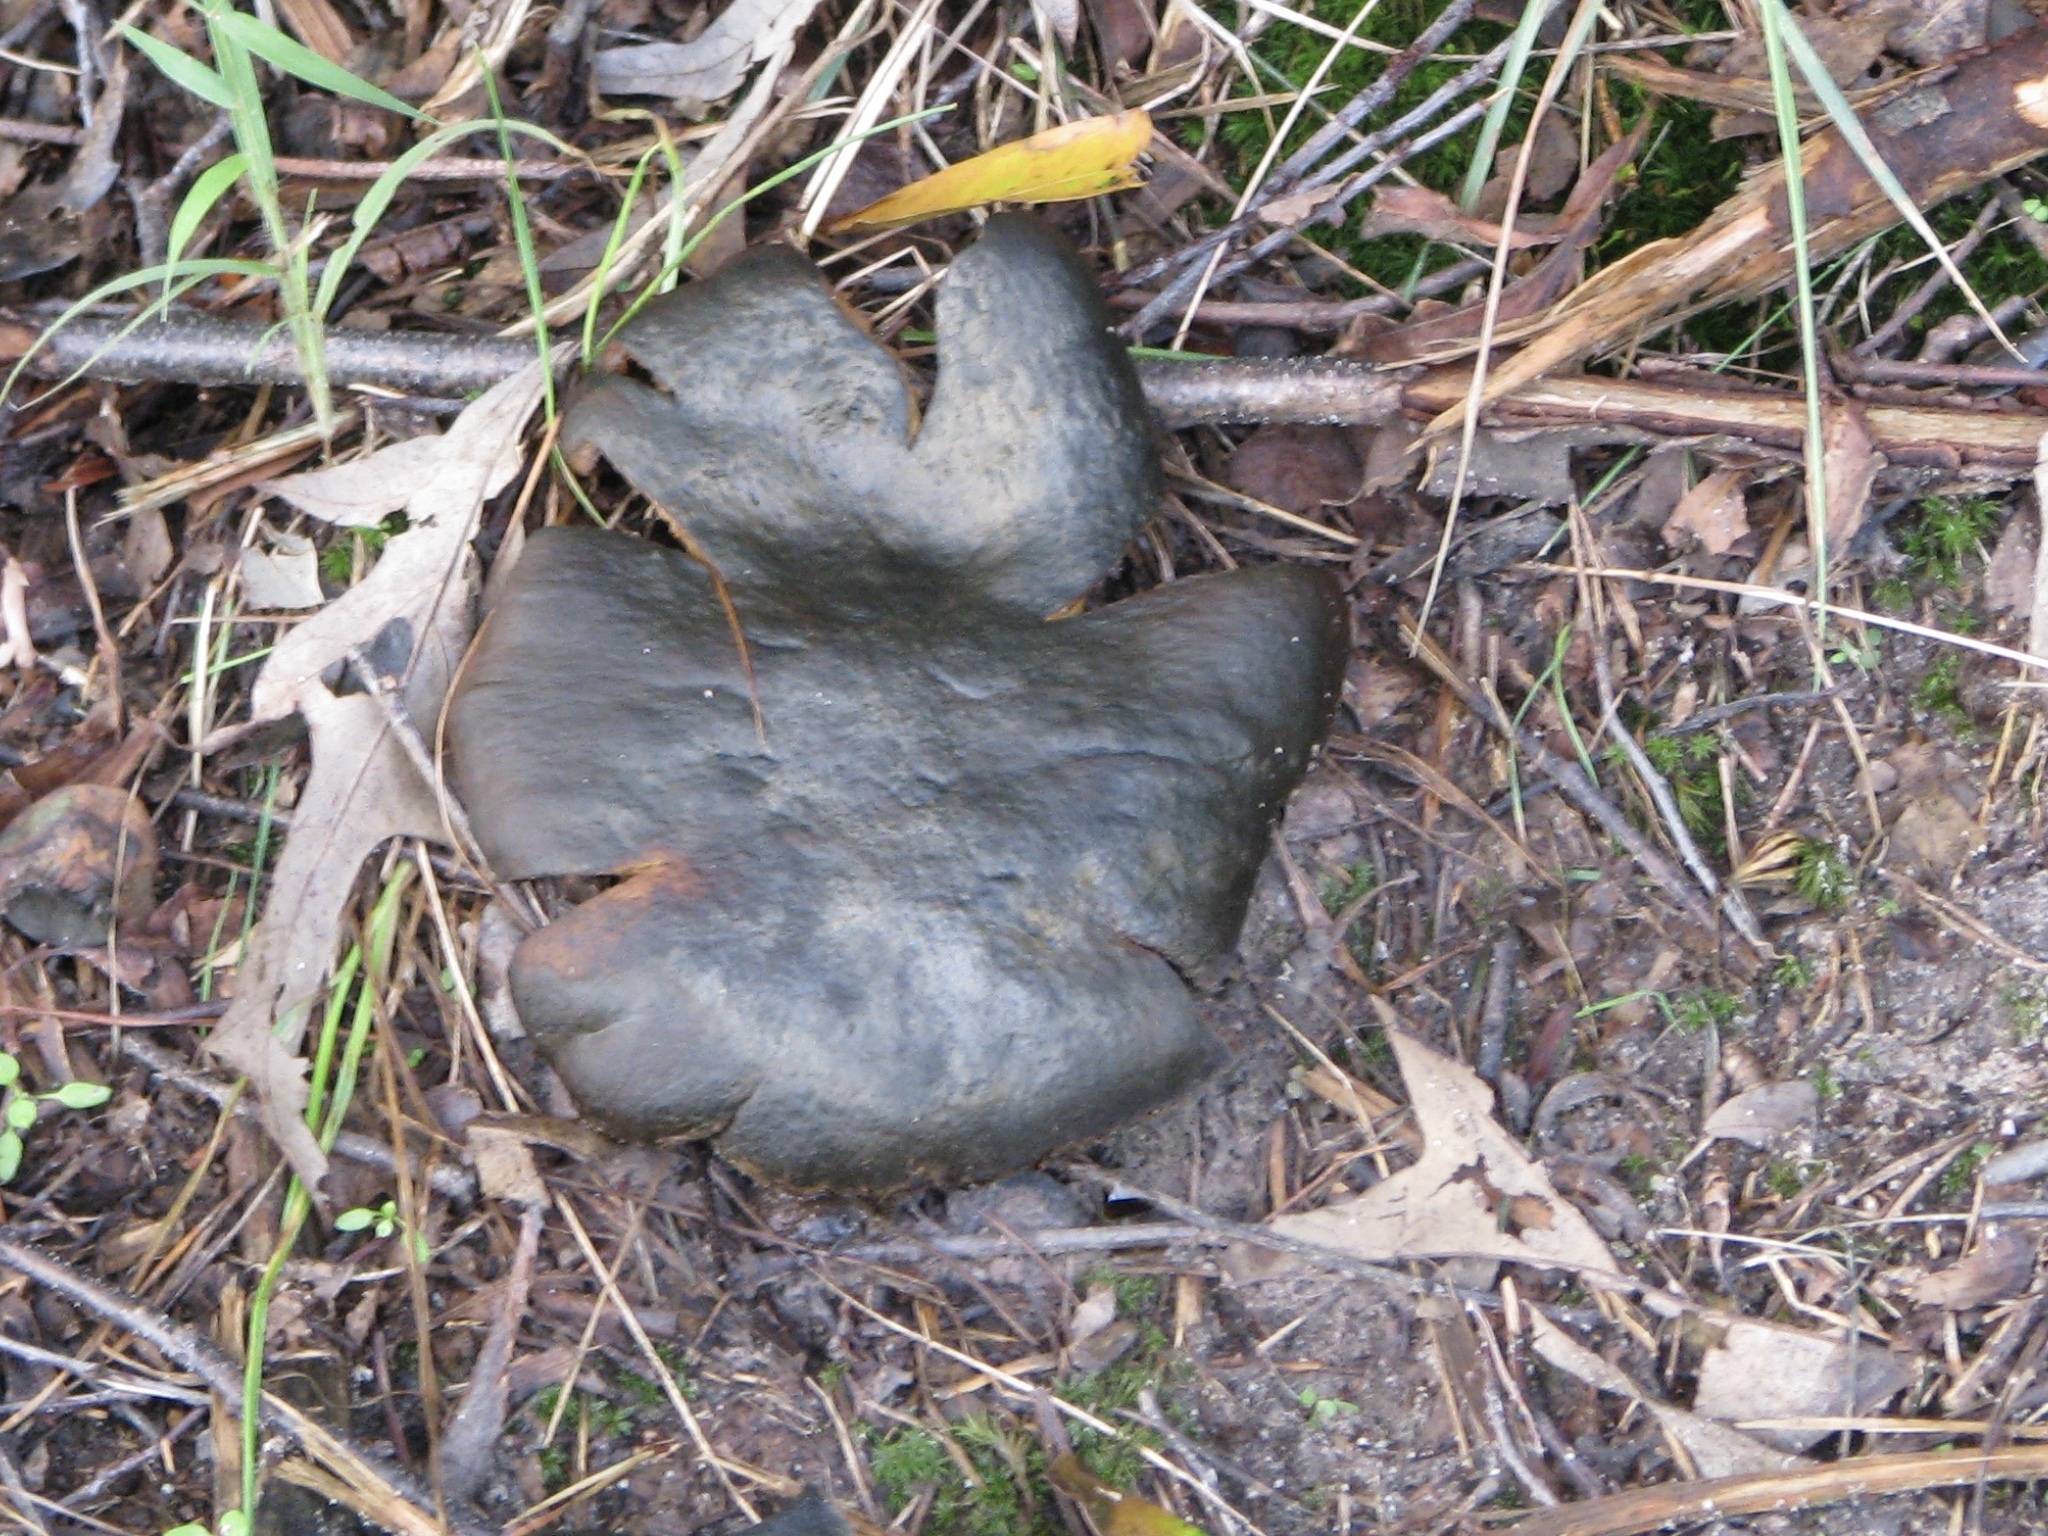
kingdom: Fungi
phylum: Basidiomycota
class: Agaricomycetes
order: Boletales
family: Sclerodermataceae
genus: Scleroderma
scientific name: Scleroderma polyrhizum
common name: Many-rooted earthball
